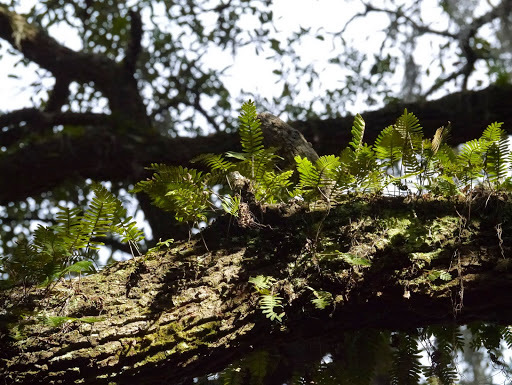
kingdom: Plantae
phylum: Tracheophyta
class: Polypodiopsida
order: Polypodiales
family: Polypodiaceae
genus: Pleopeltis
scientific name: Pleopeltis michauxiana
